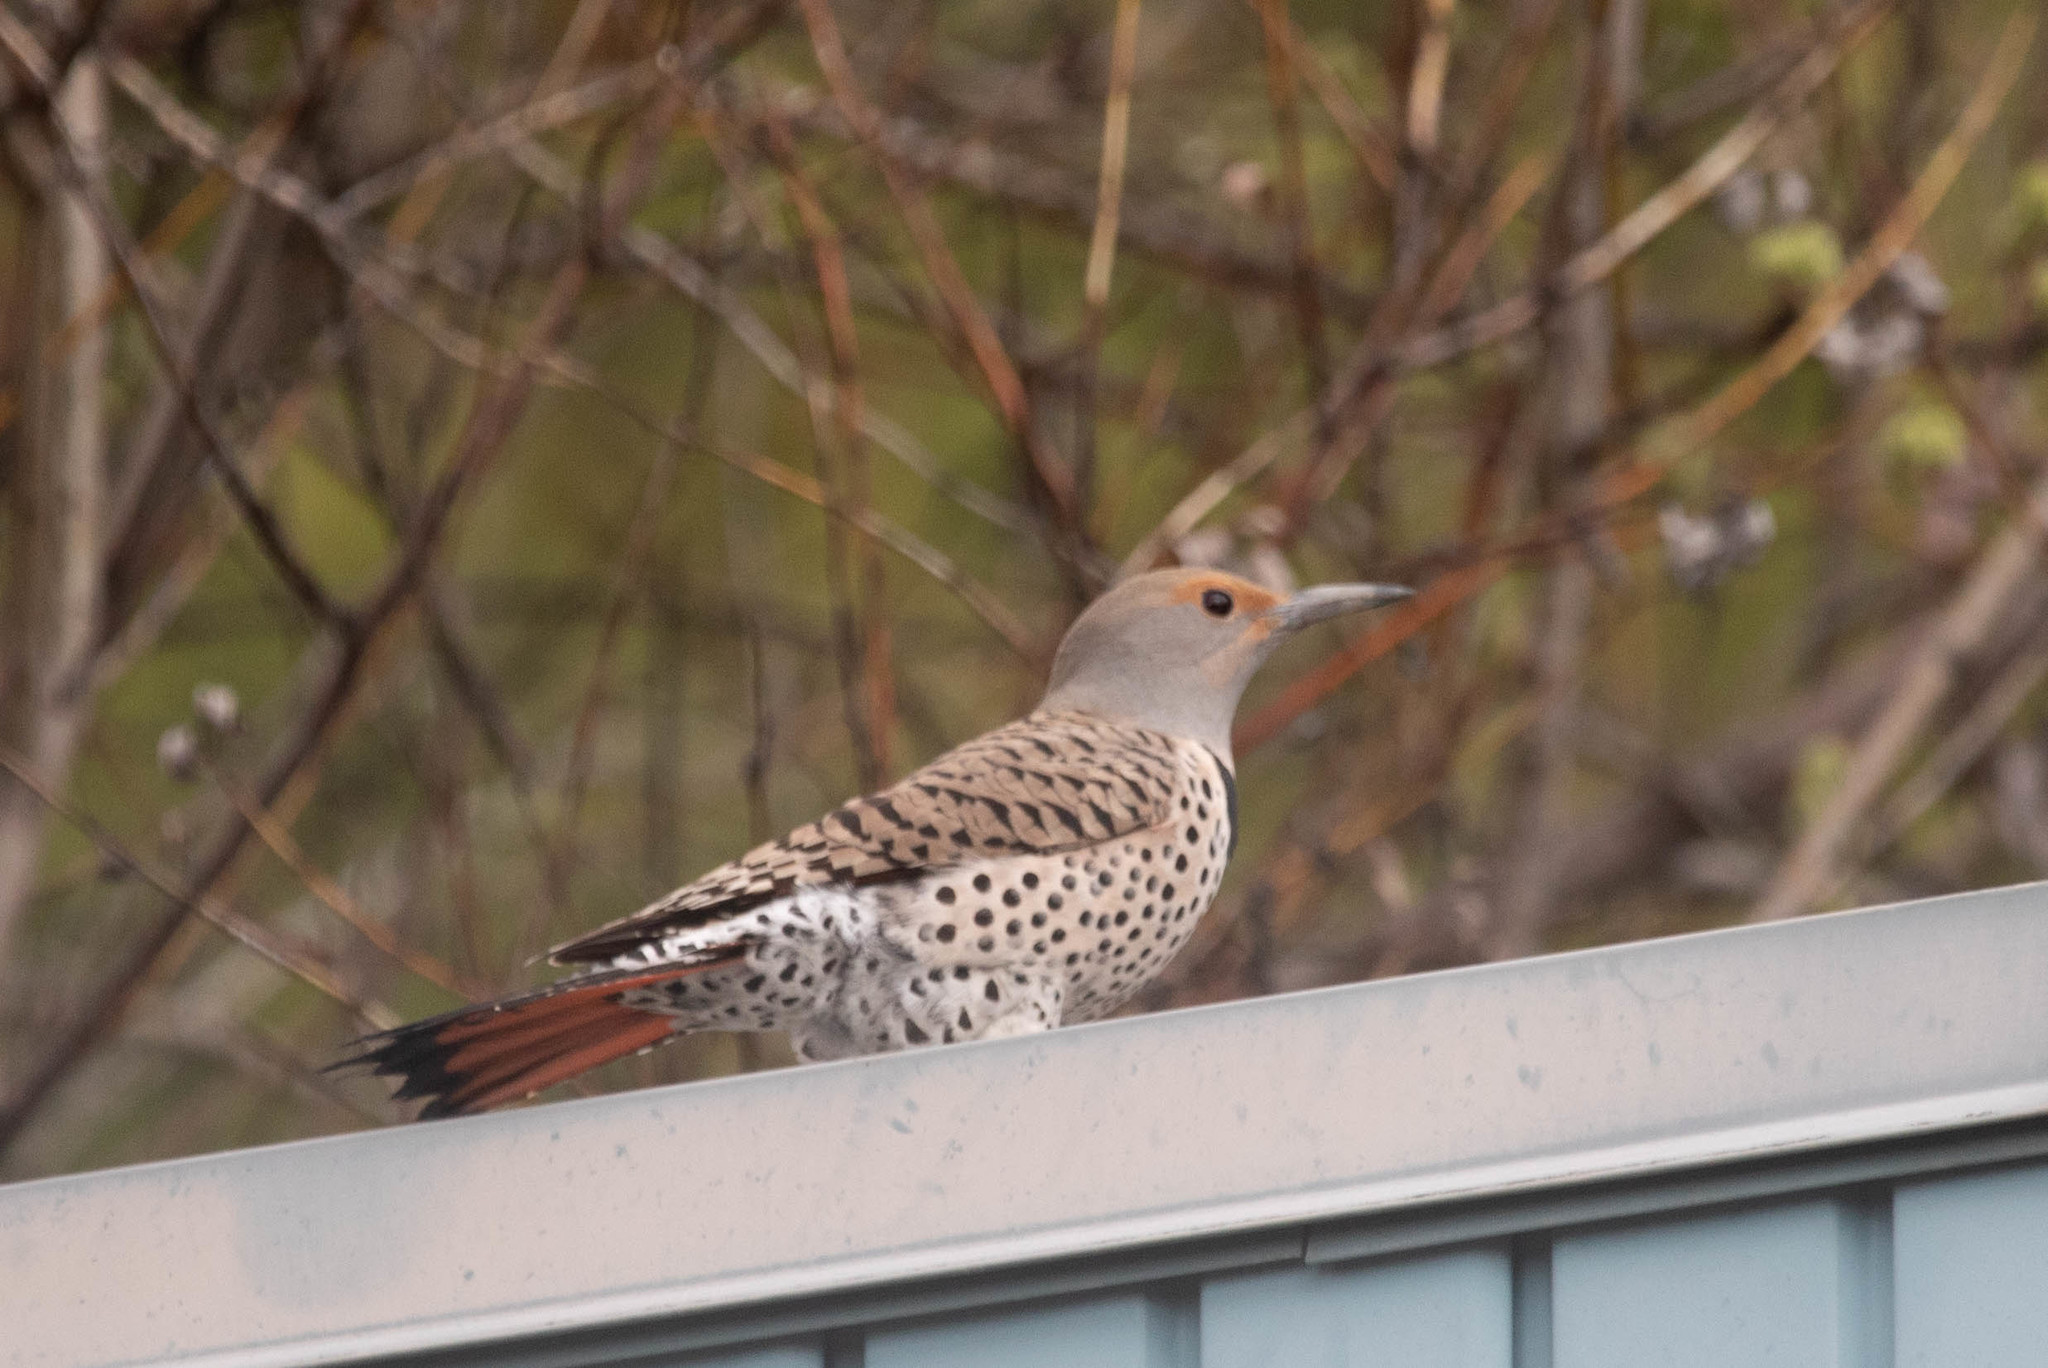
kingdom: Animalia
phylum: Chordata
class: Aves
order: Piciformes
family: Picidae
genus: Colaptes
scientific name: Colaptes auratus
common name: Northern flicker
